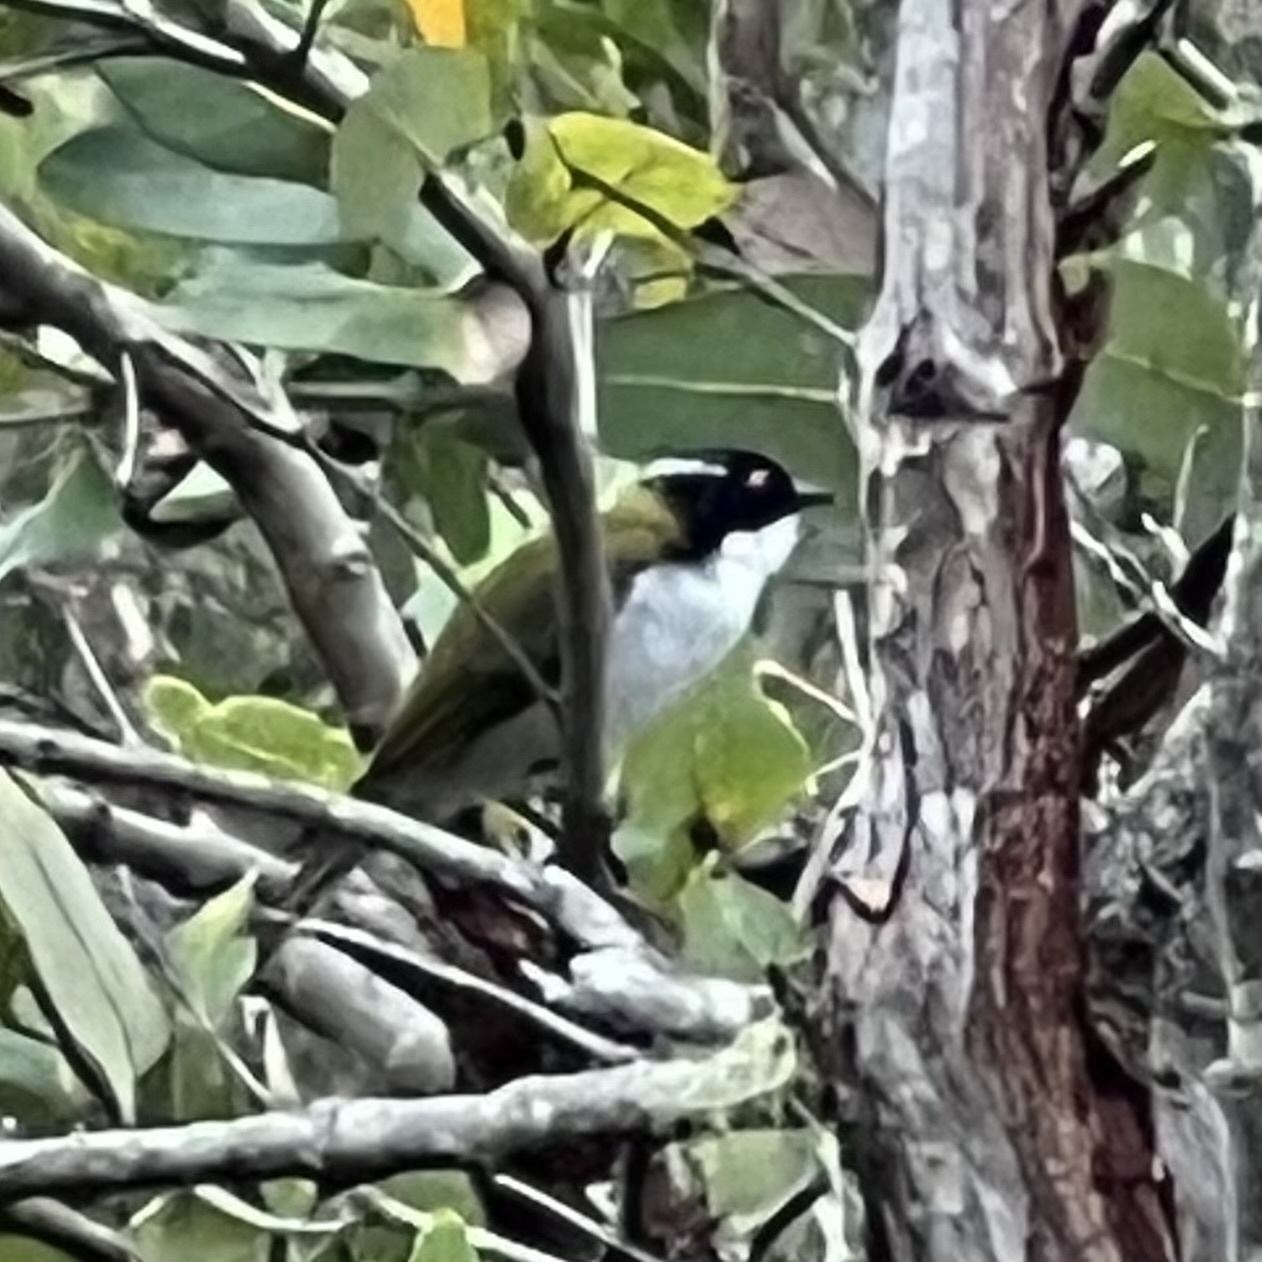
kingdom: Animalia
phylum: Chordata
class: Aves
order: Passeriformes
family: Meliphagidae
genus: Melithreptus
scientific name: Melithreptus lunatus
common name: White-naped honeyeater
